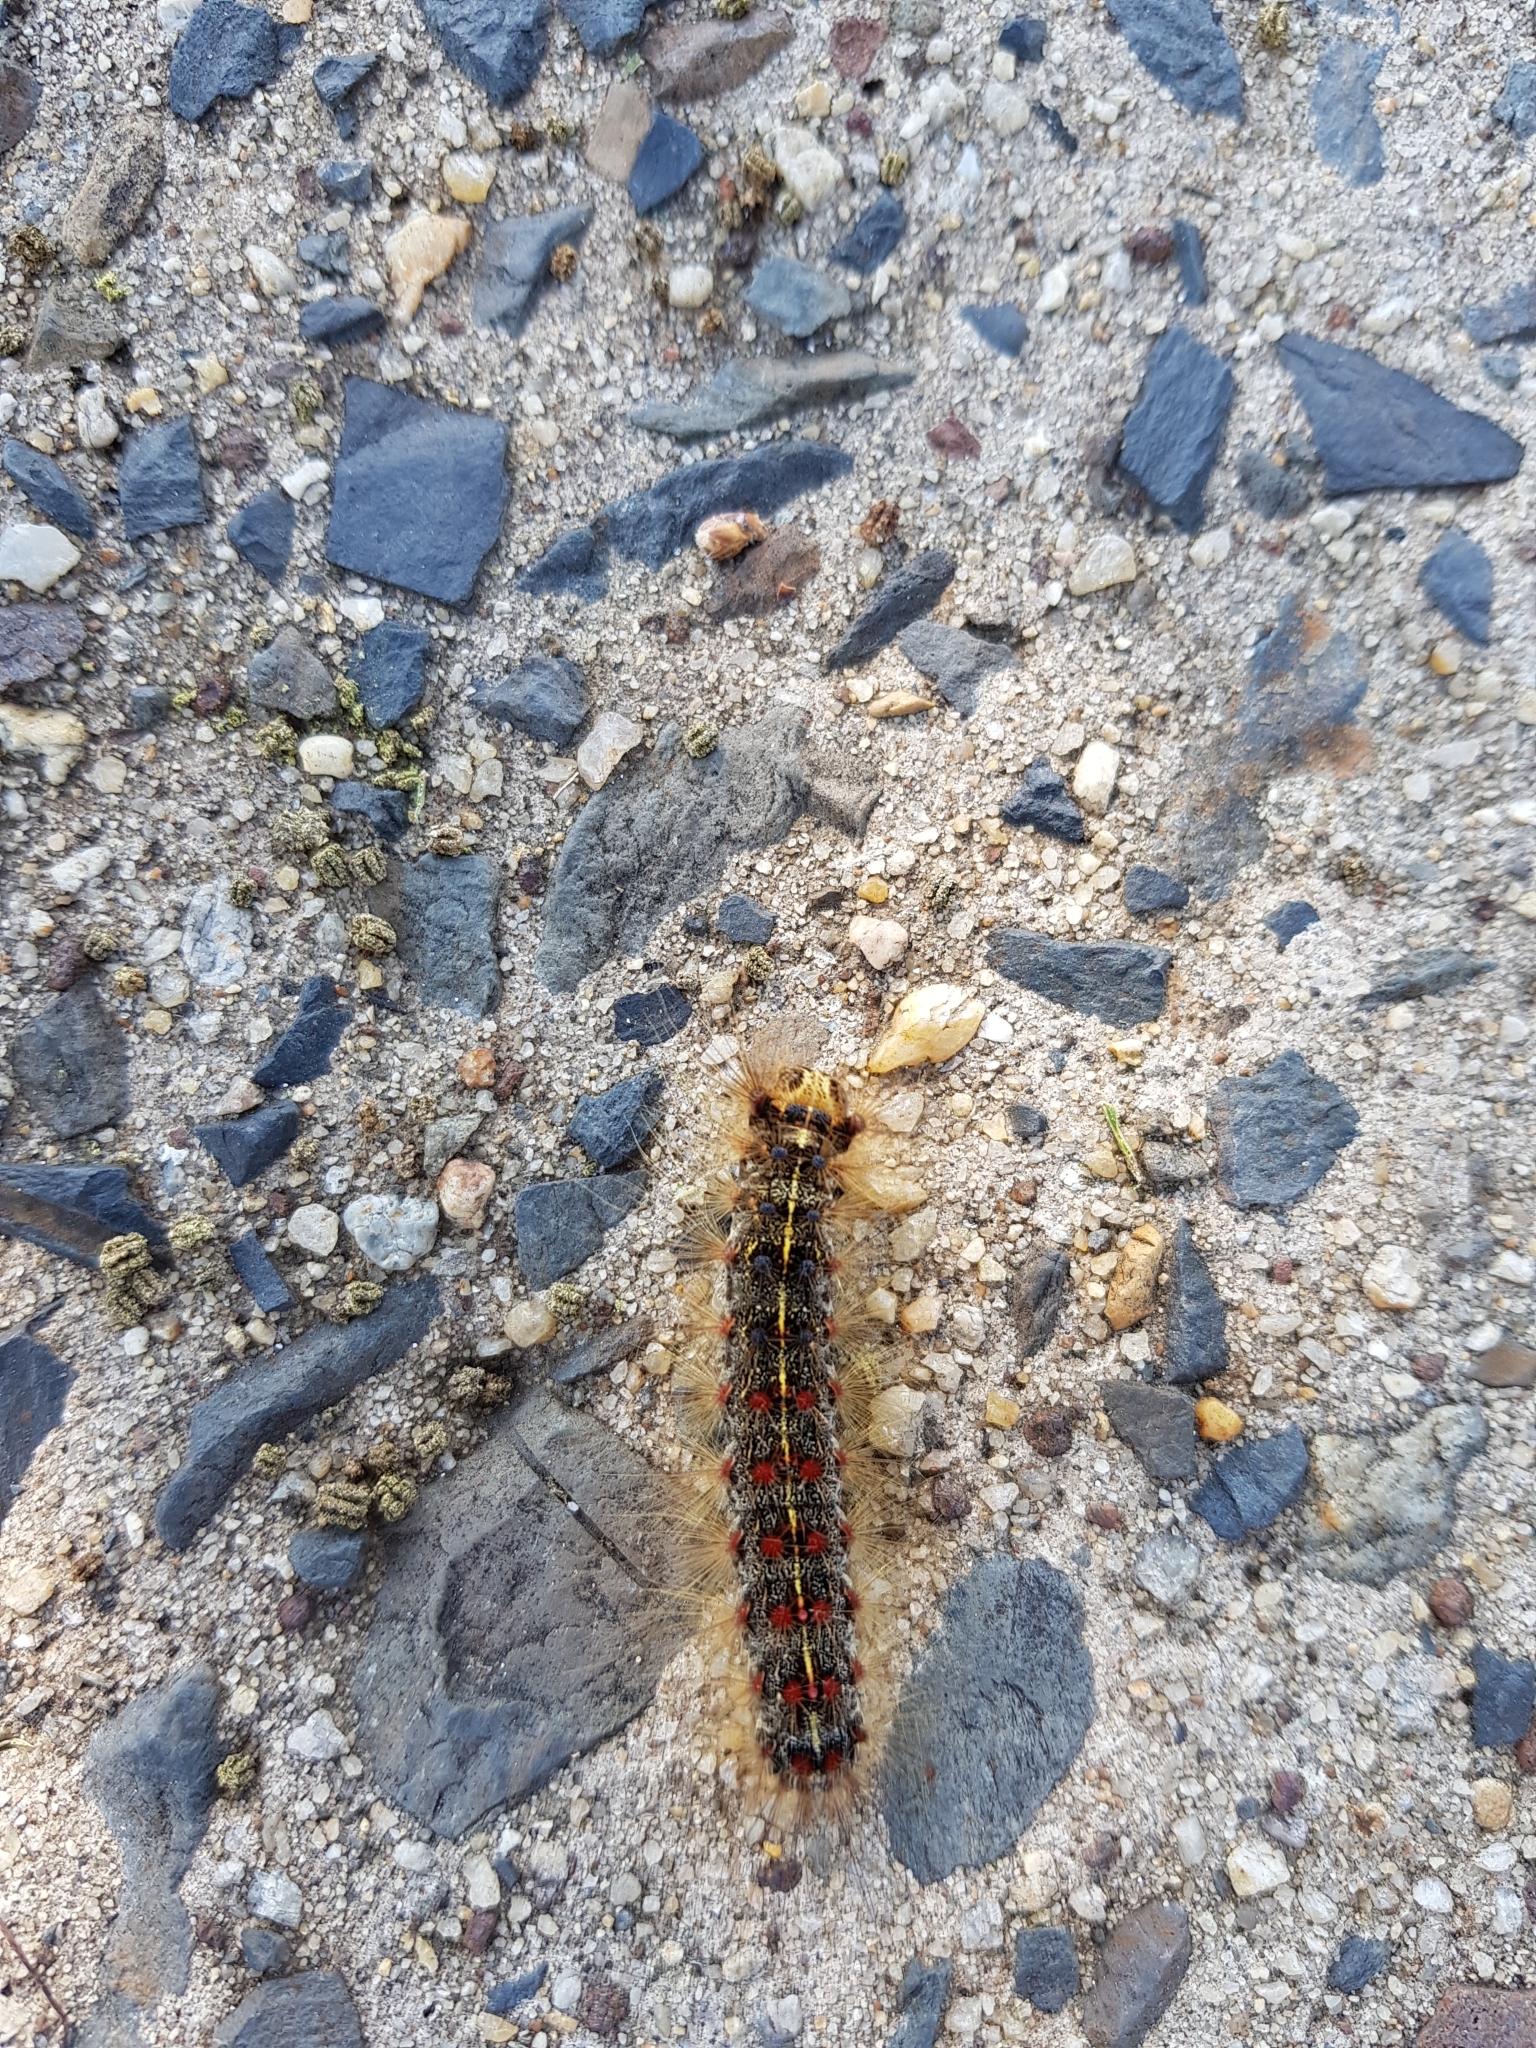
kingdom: Animalia
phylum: Arthropoda
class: Insecta
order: Lepidoptera
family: Erebidae
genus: Lymantria
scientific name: Lymantria dispar
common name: Gypsy moth
